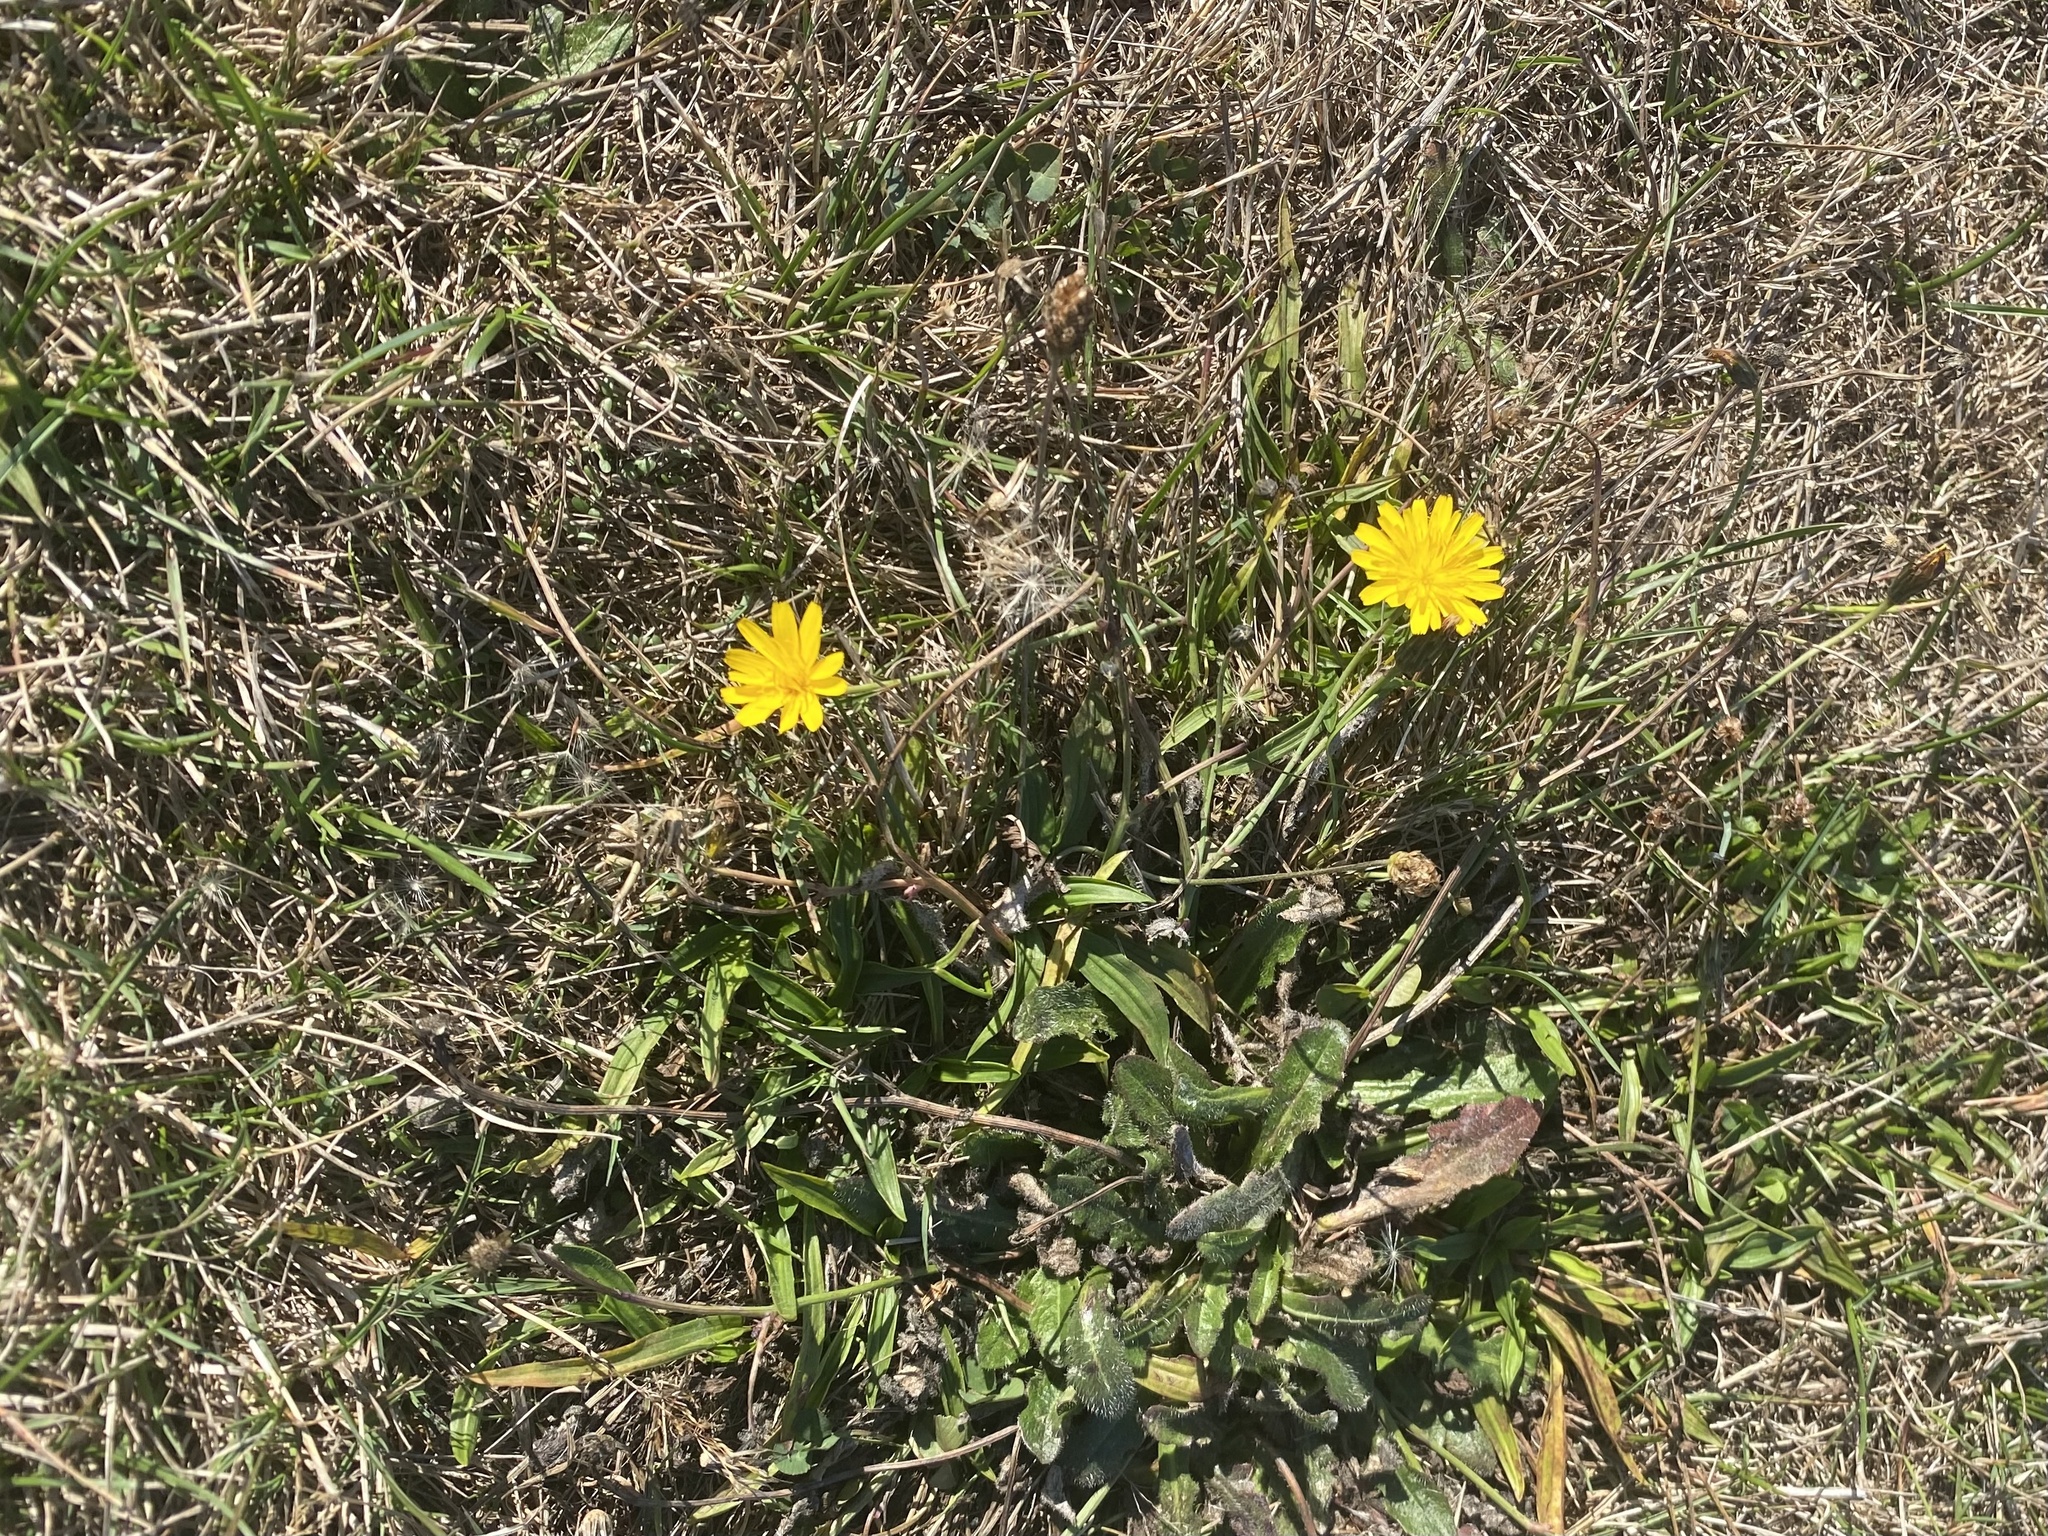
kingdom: Plantae
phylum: Tracheophyta
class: Magnoliopsida
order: Asterales
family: Asteraceae
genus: Hypochaeris
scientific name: Hypochaeris radicata
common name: Flatweed
